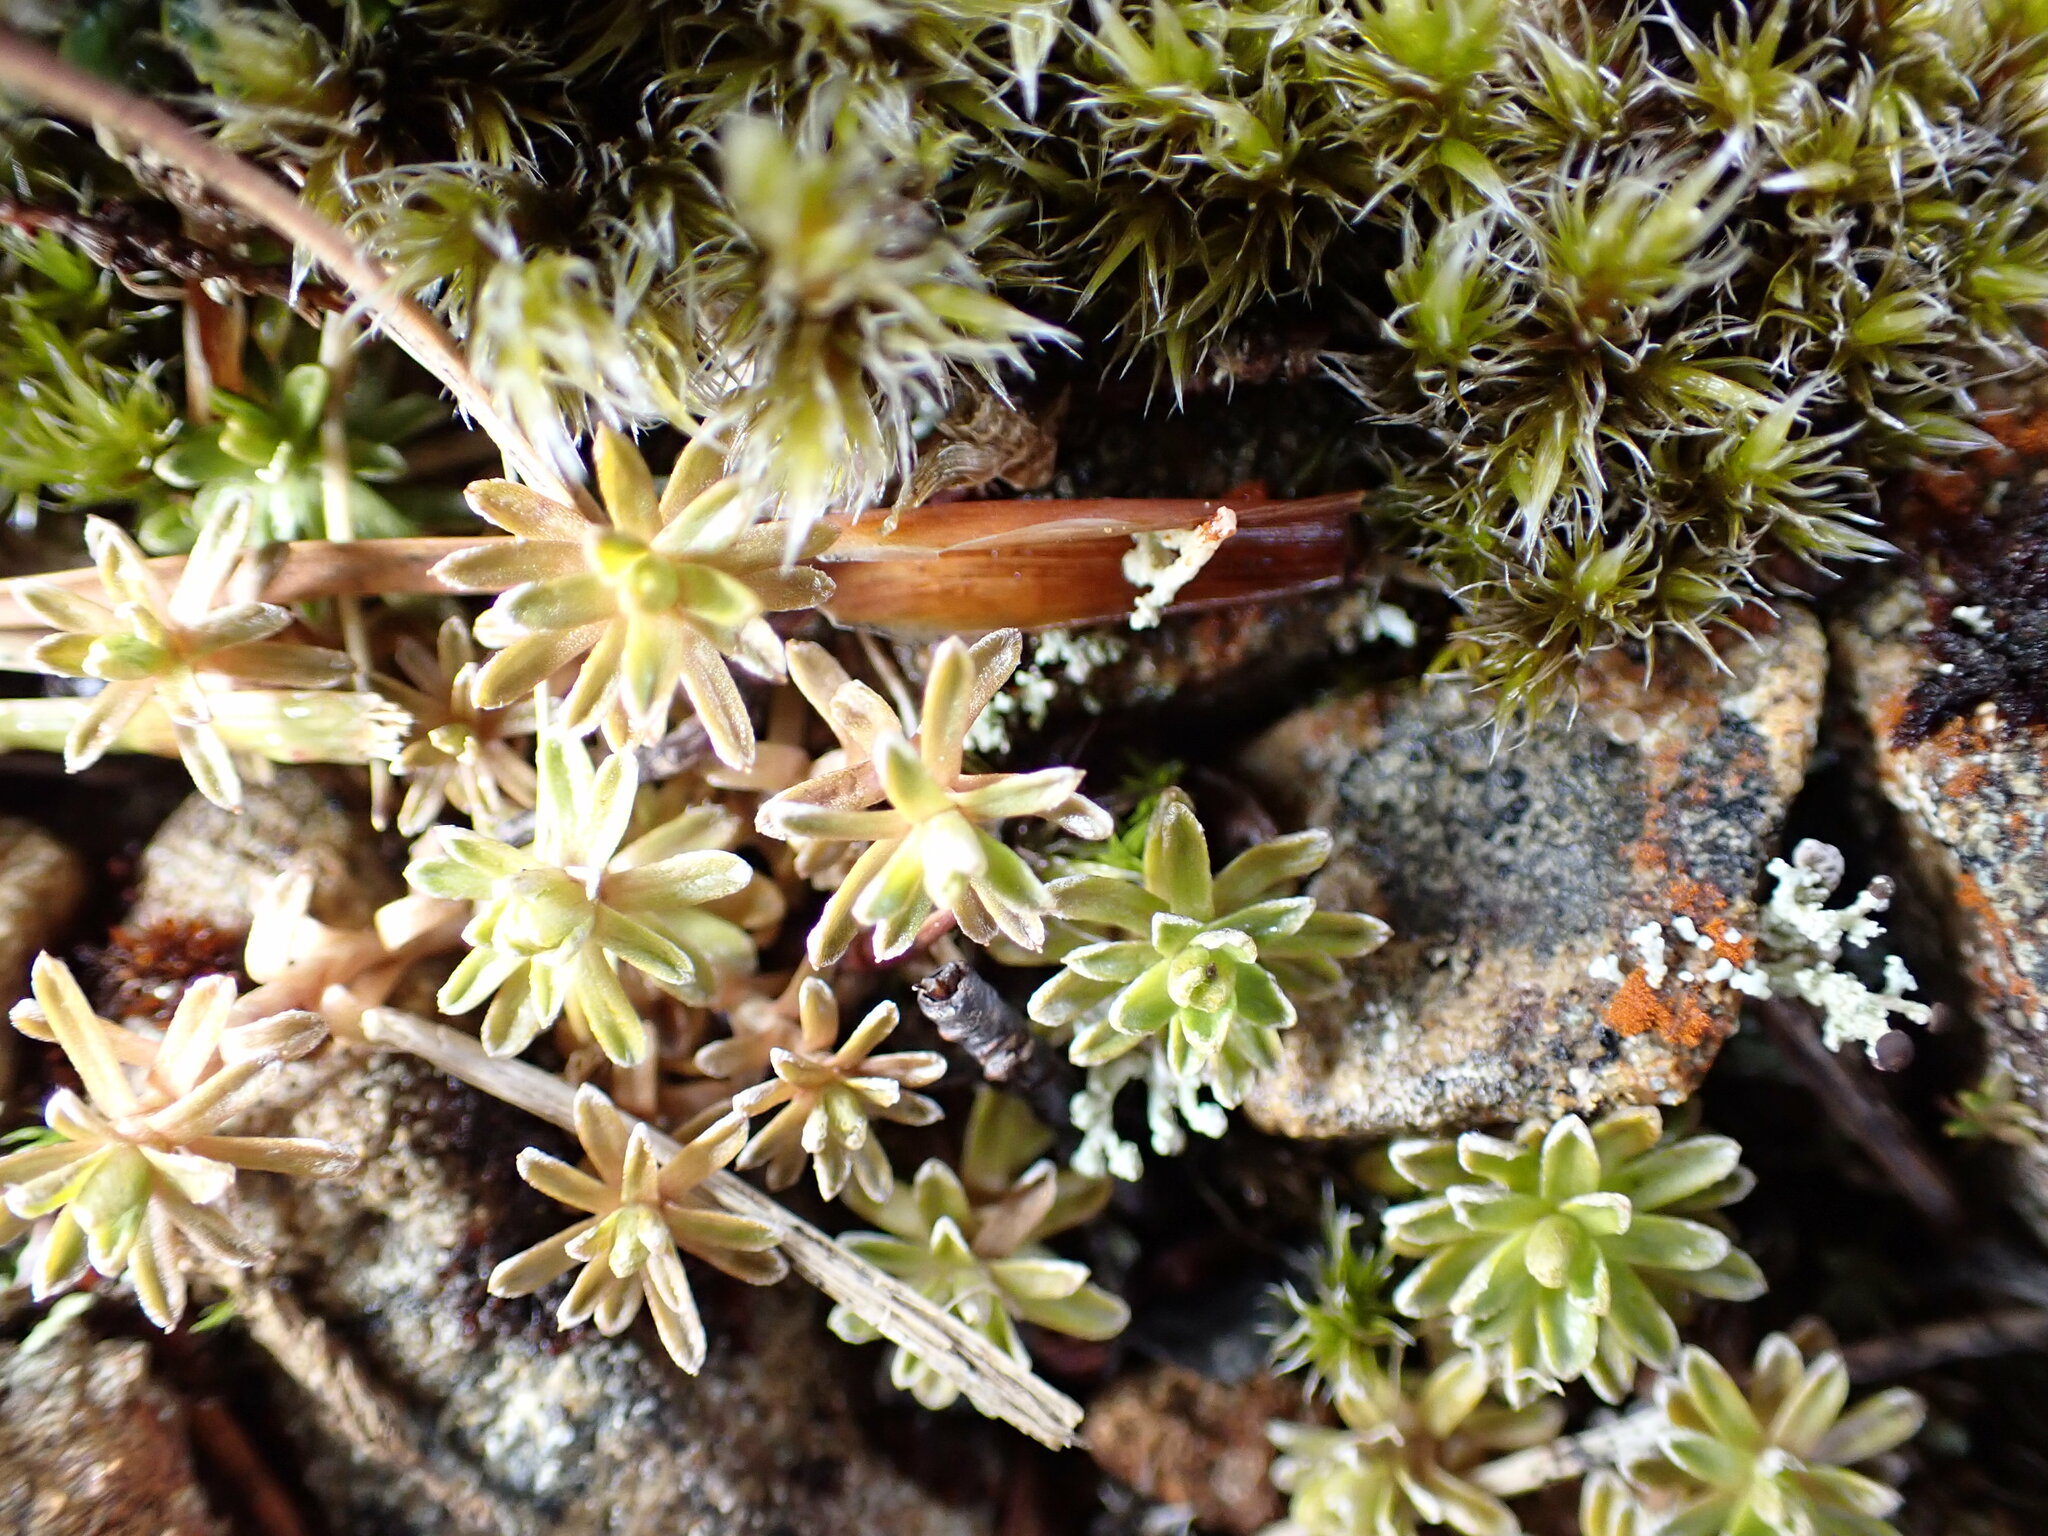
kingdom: Plantae
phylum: Tracheophyta
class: Magnoliopsida
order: Asterales
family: Asteraceae
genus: Raoulia
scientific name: Raoulia subsericea
